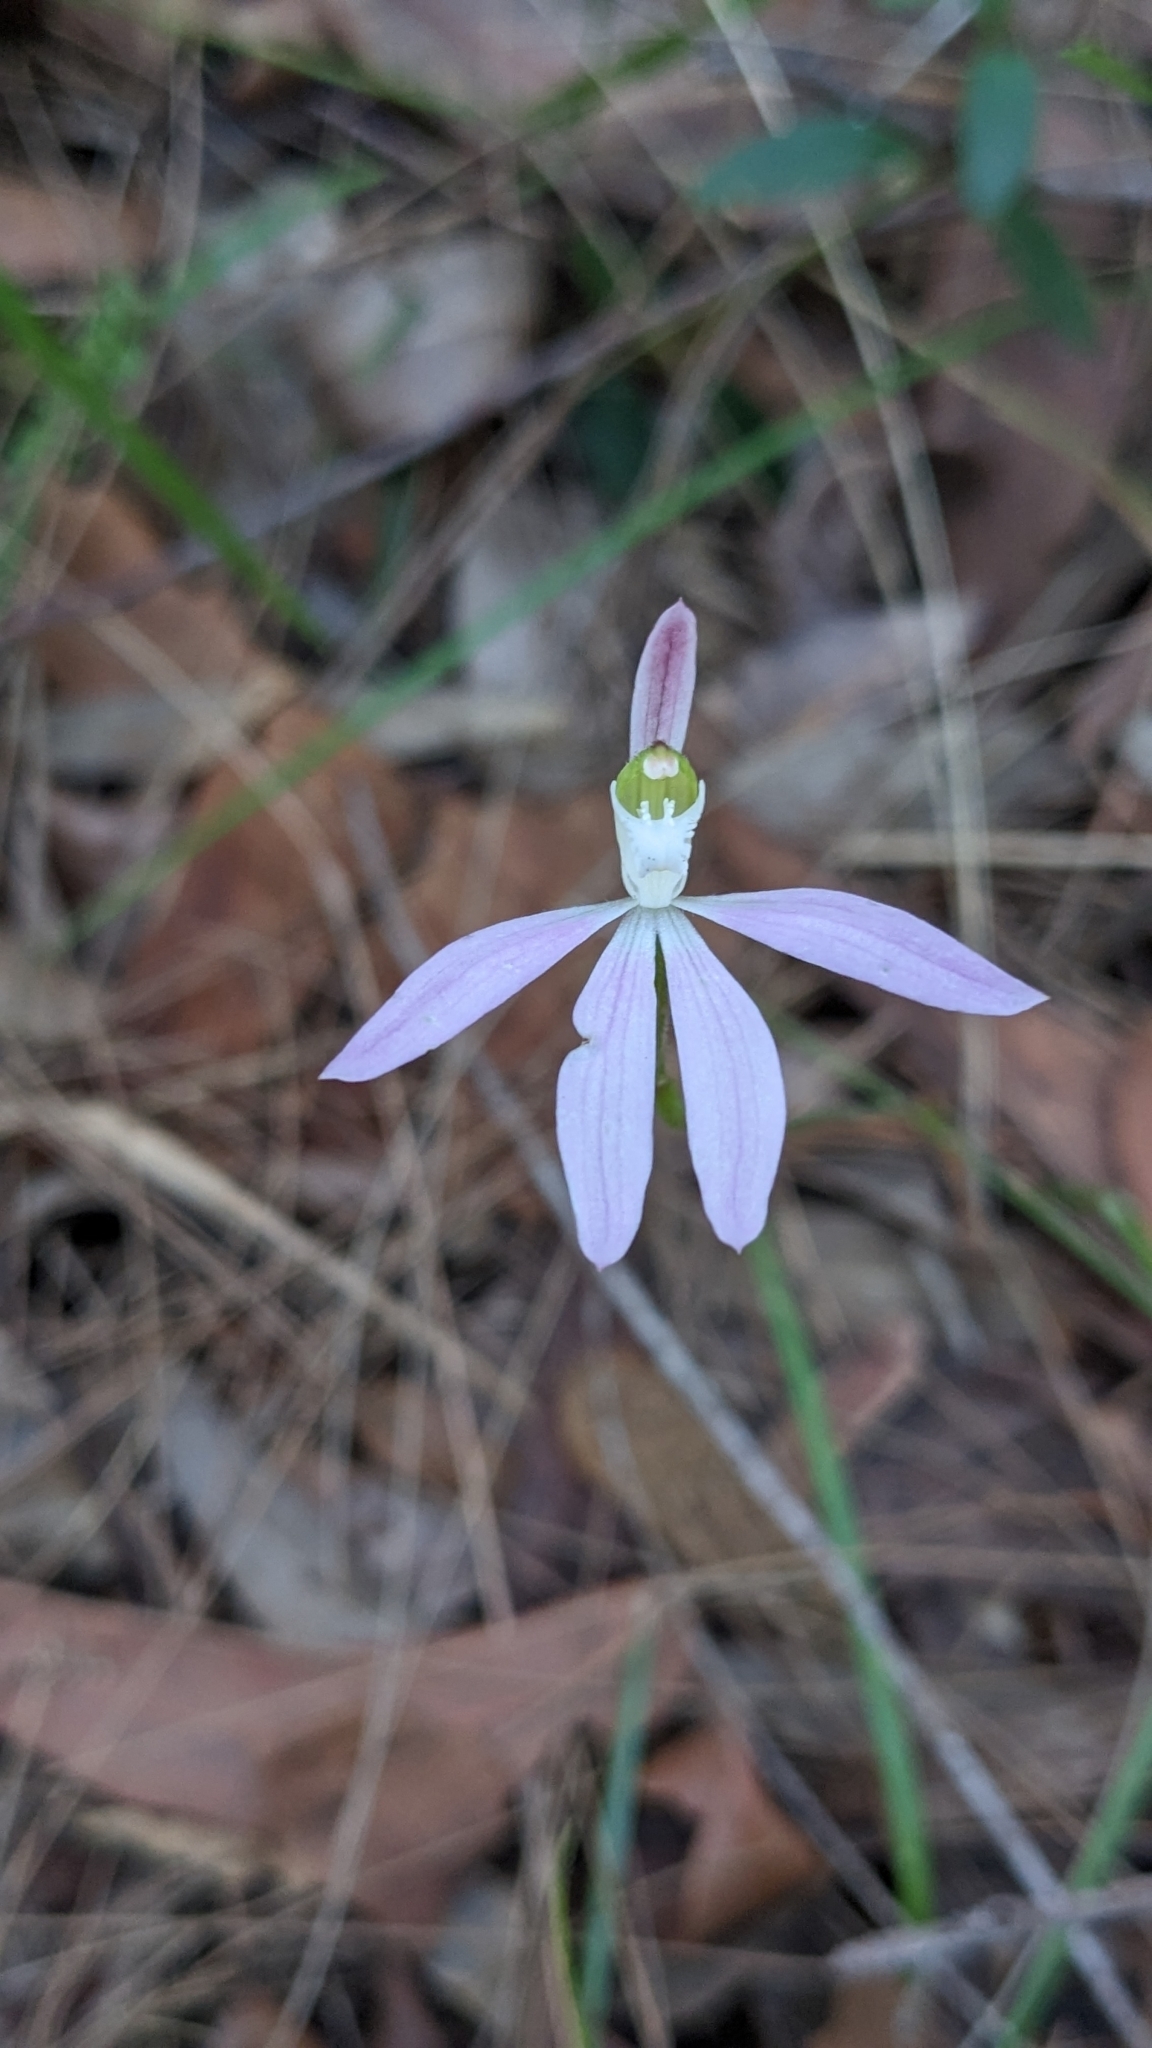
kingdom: Plantae
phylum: Tracheophyta
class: Liliopsida
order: Asparagales
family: Orchidaceae
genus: Caladenia
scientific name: Caladenia catenata
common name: White caladenia
